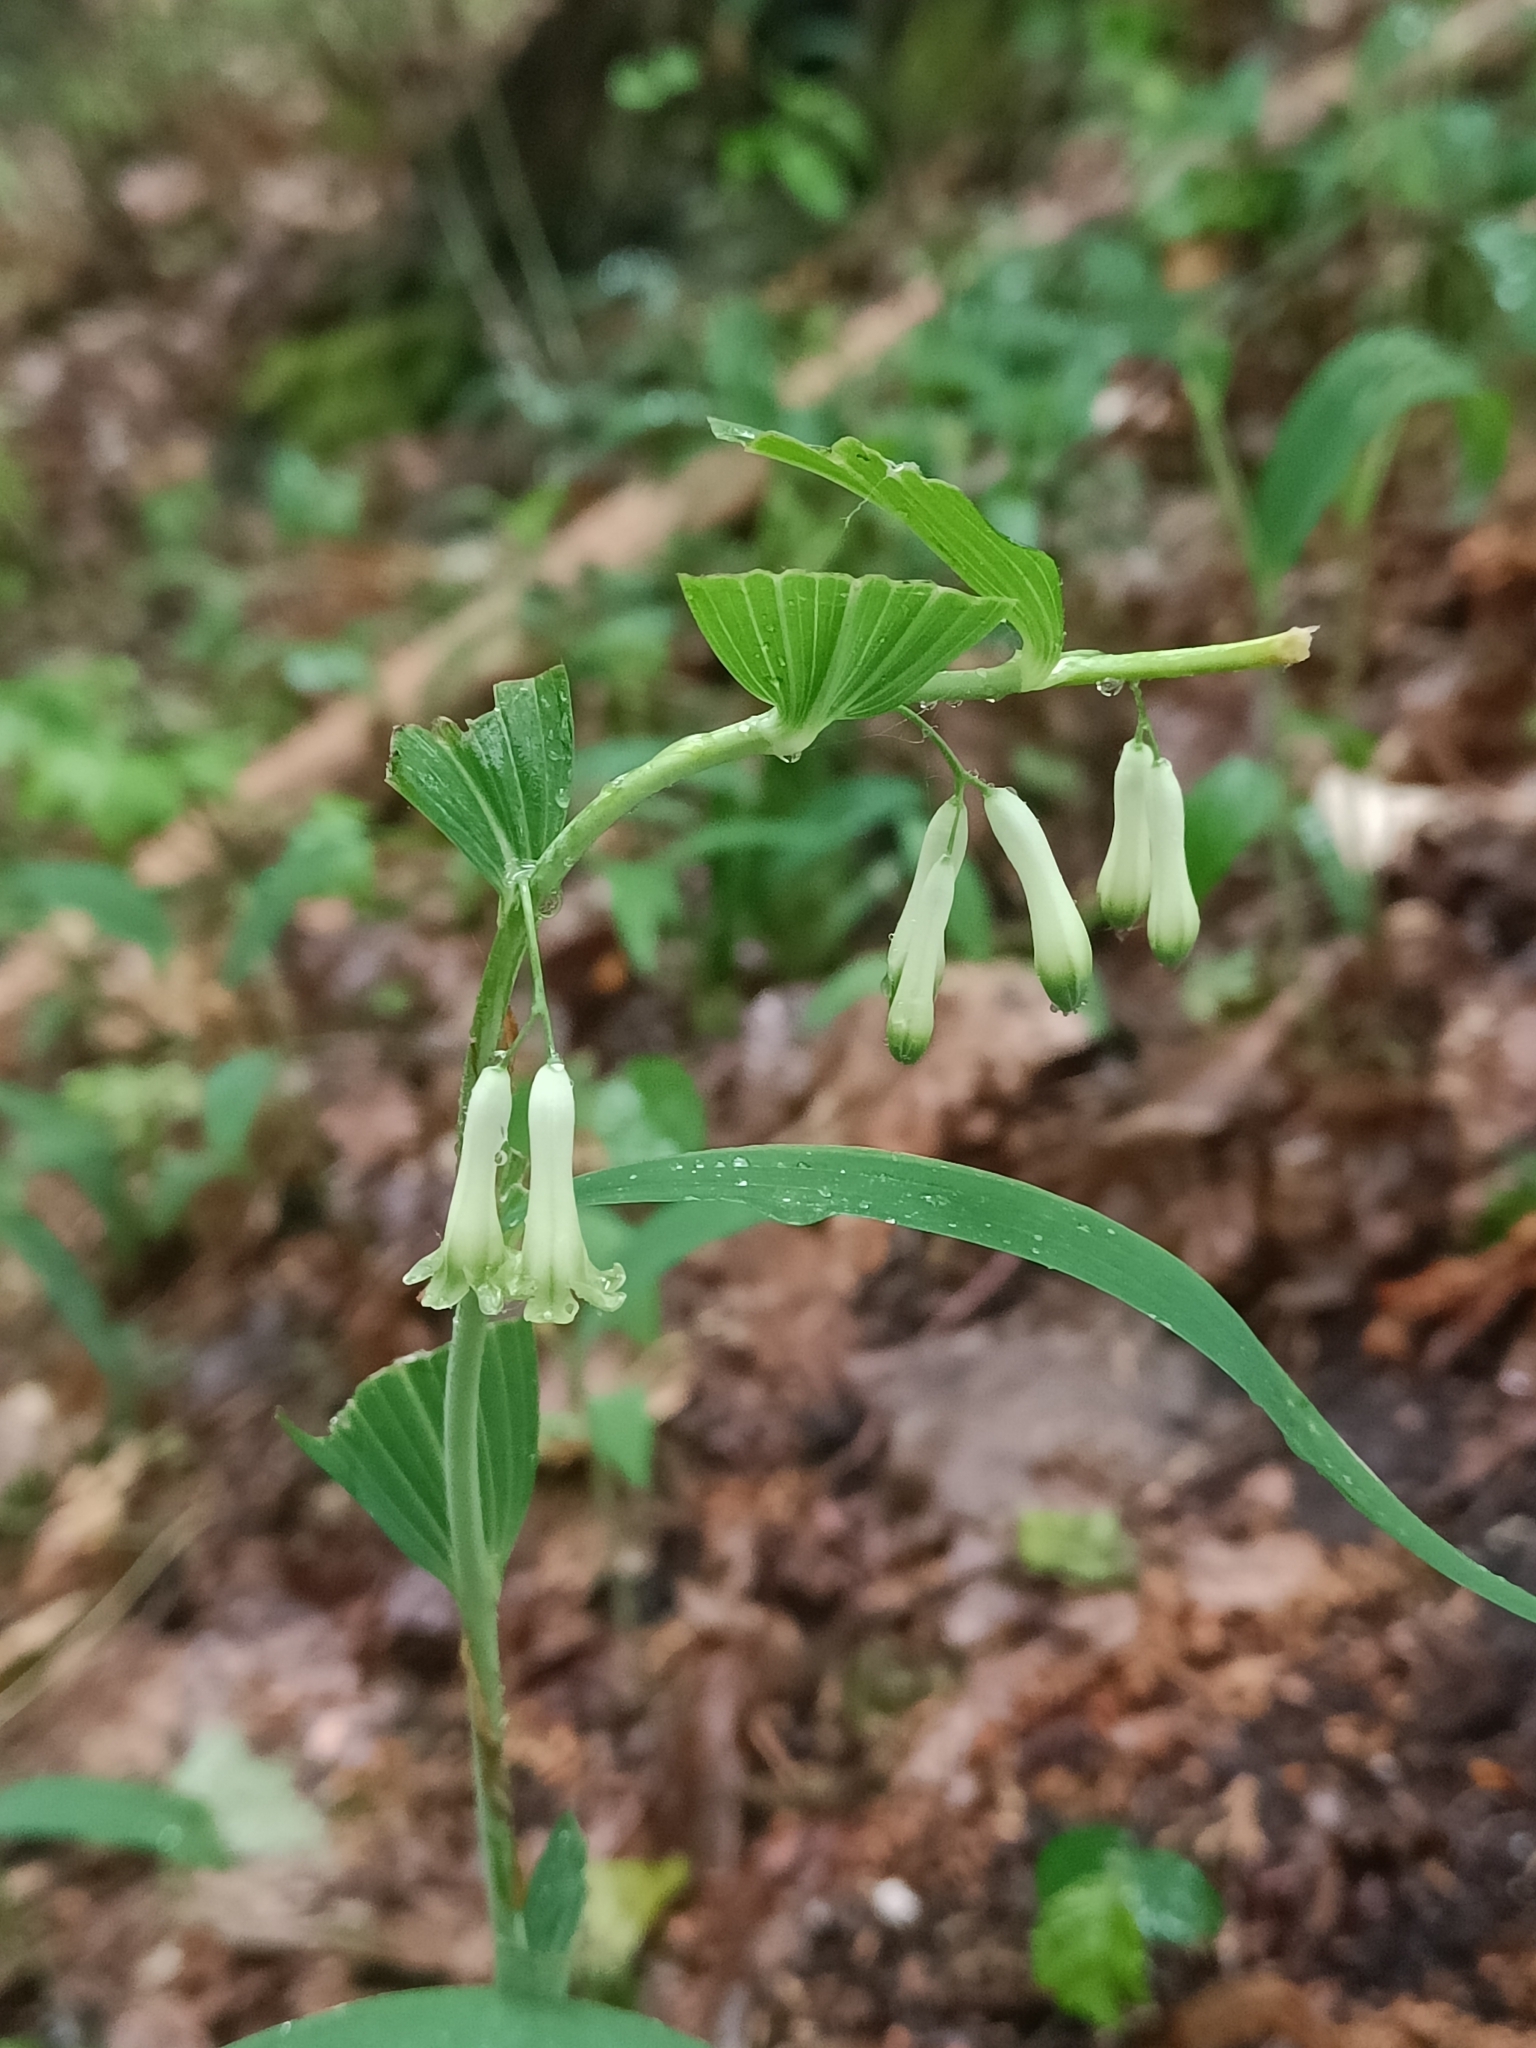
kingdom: Plantae
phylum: Tracheophyta
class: Liliopsida
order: Asparagales
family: Asparagaceae
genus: Polygonatum
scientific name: Polygonatum multiflorum
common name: Solomon's-seal
